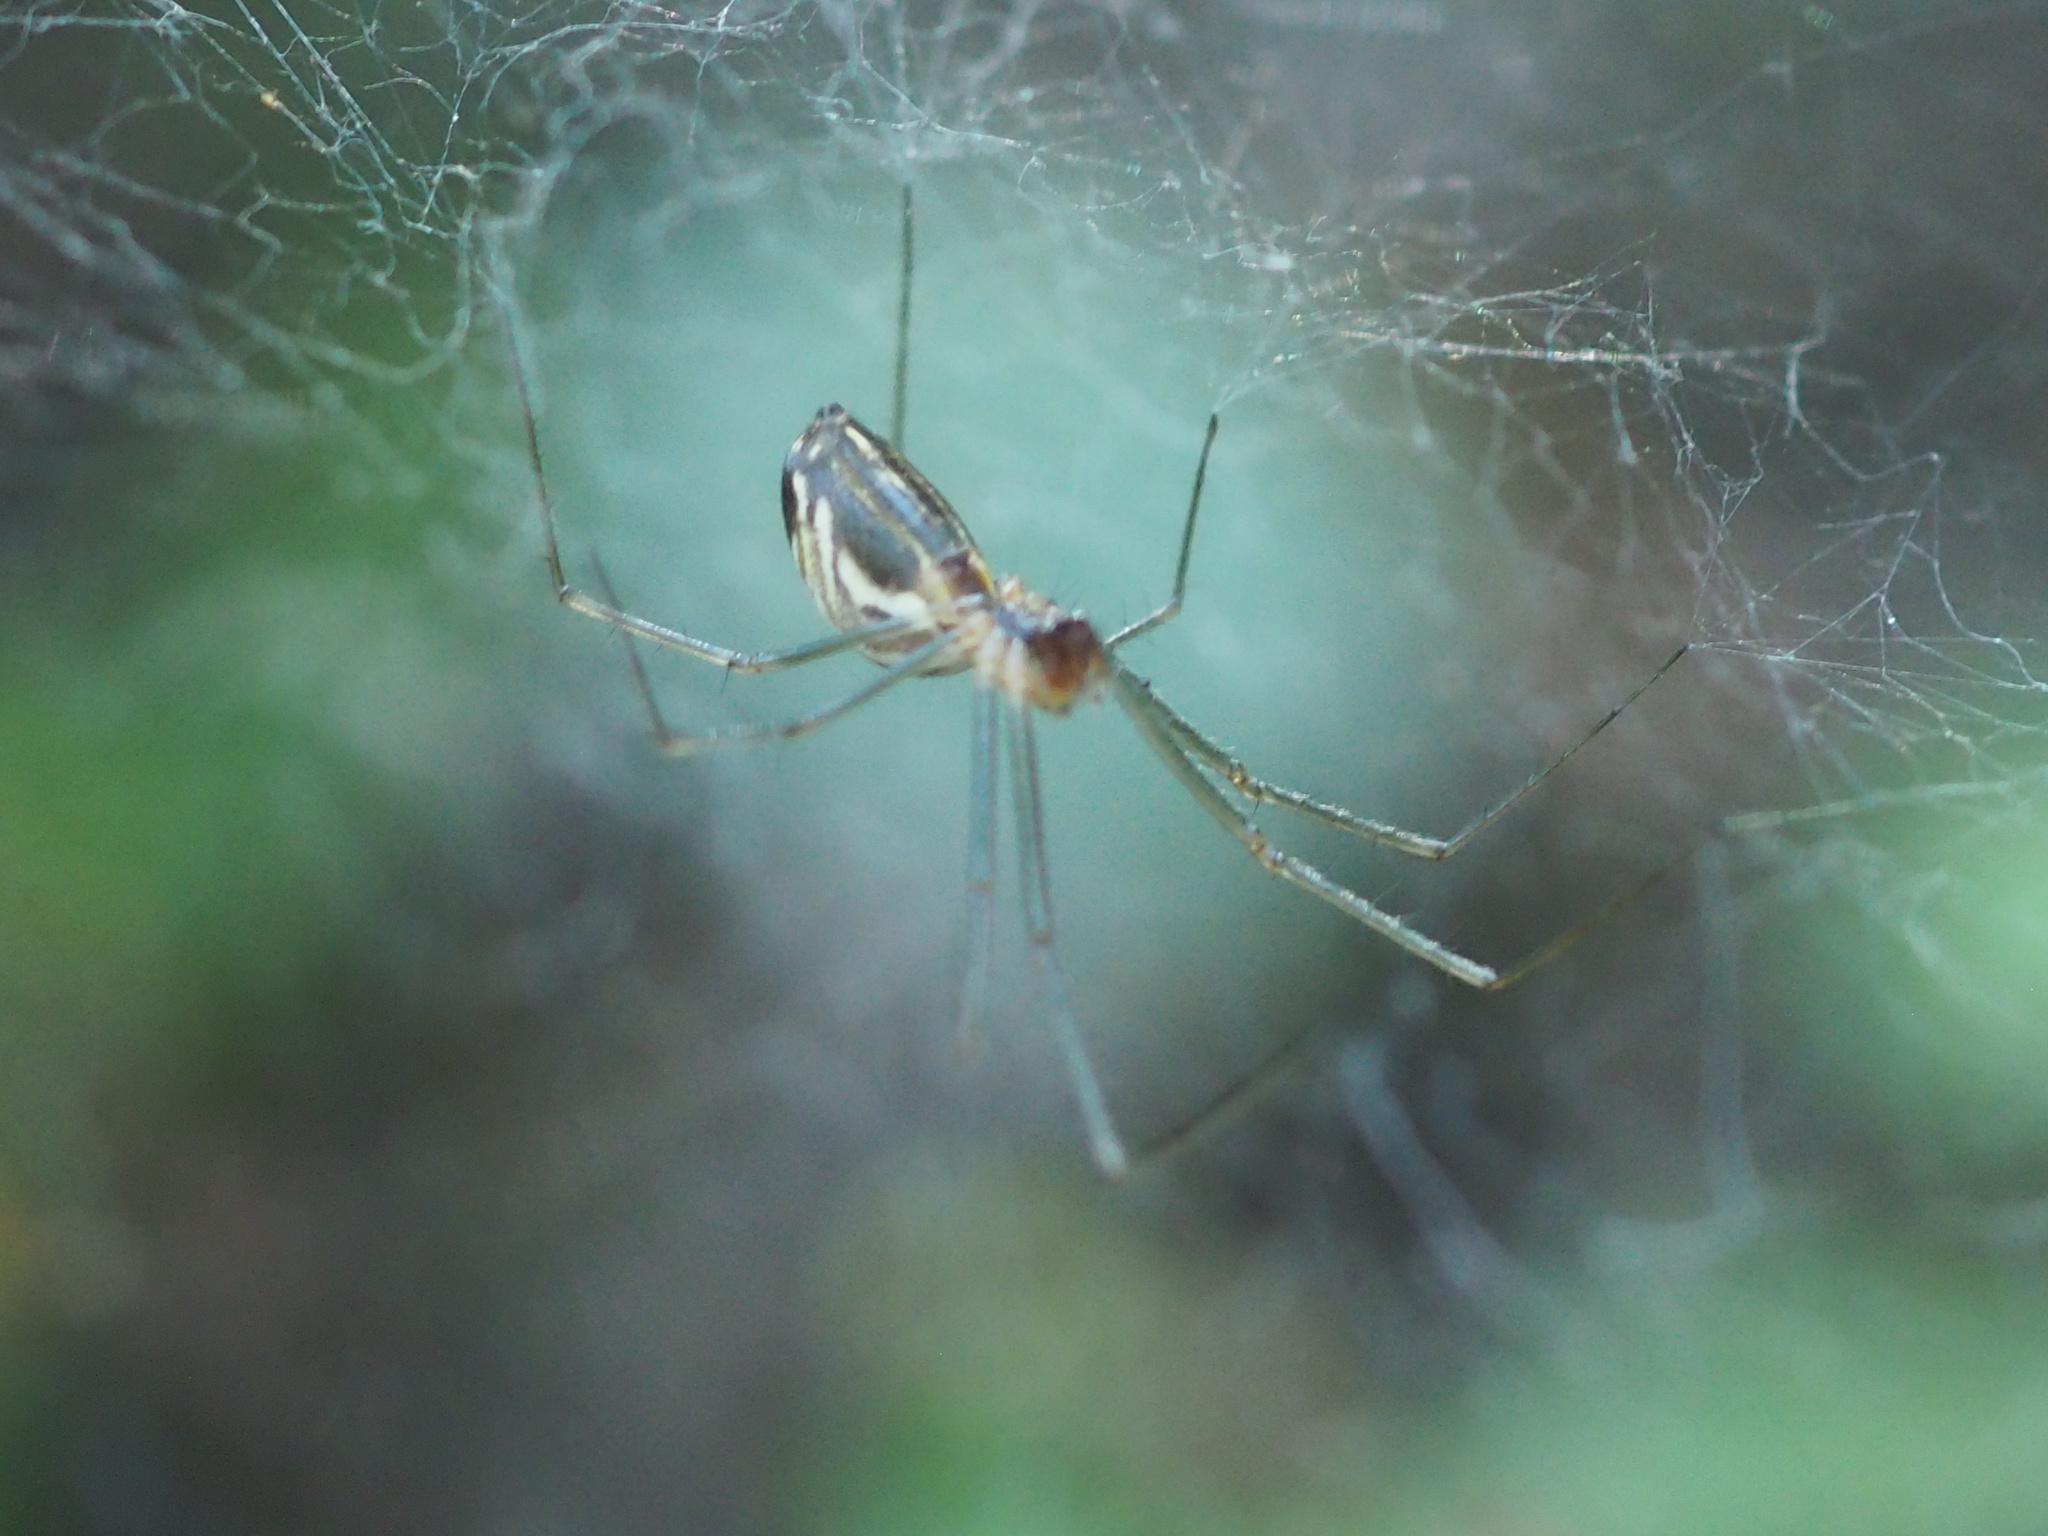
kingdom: Animalia
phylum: Arthropoda
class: Arachnida
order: Araneae
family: Linyphiidae
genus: Neriene
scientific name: Neriene litigiosa
